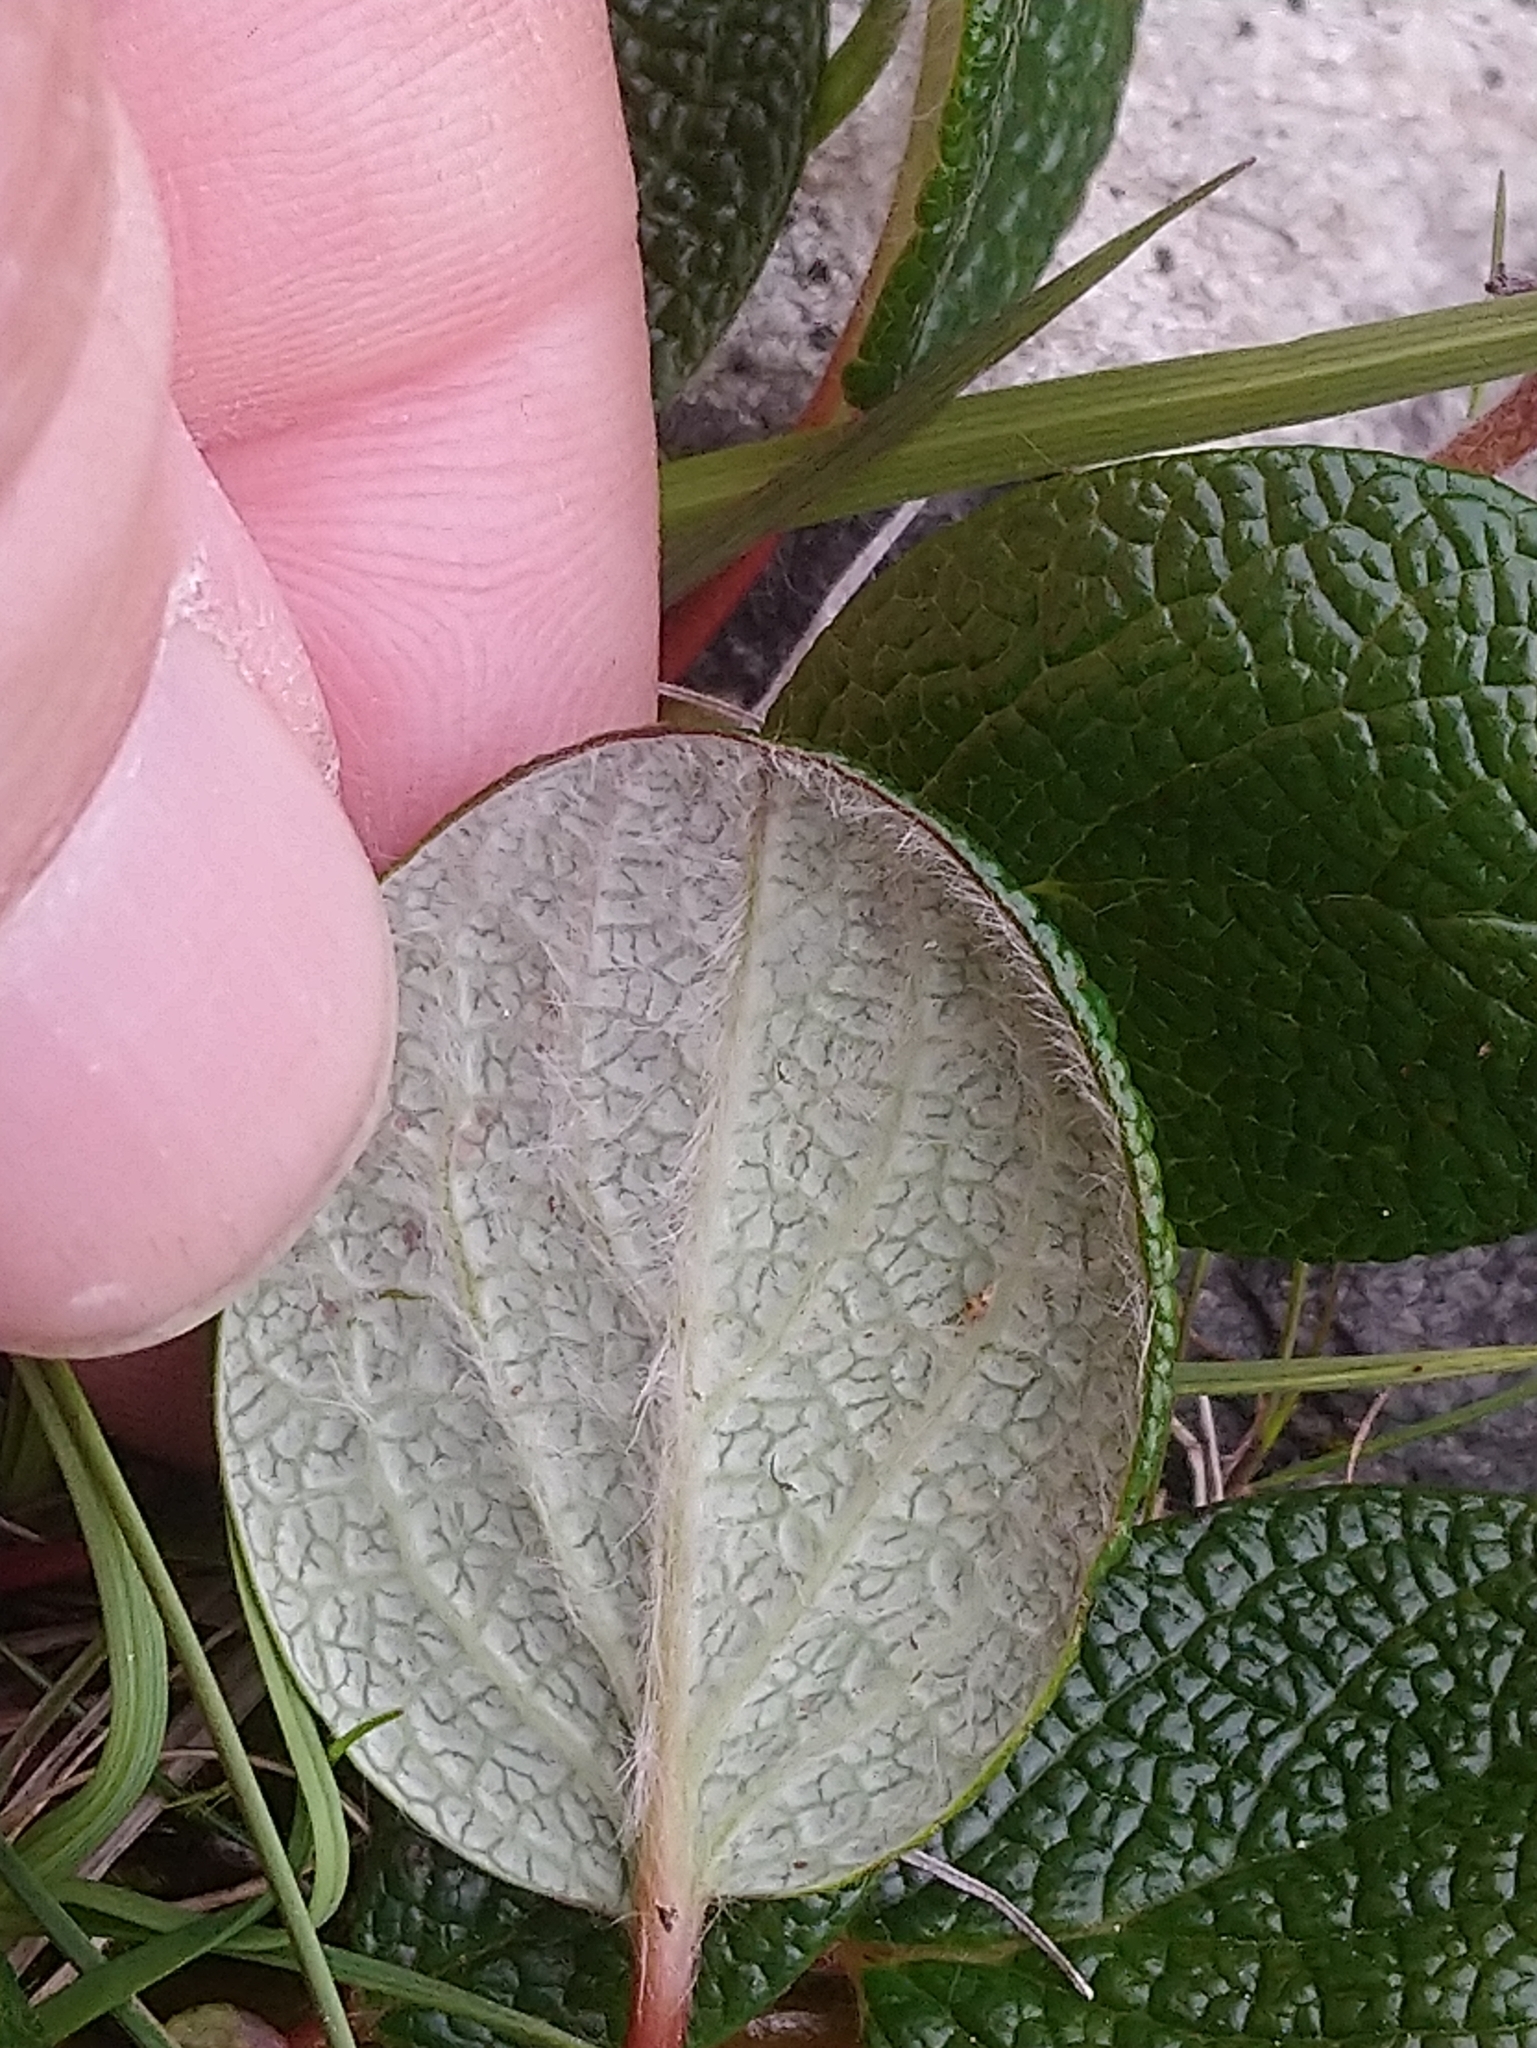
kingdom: Plantae
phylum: Tracheophyta
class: Magnoliopsida
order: Malpighiales
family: Salicaceae
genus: Salix
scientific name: Salix reticulata
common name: Net-leaved willow
